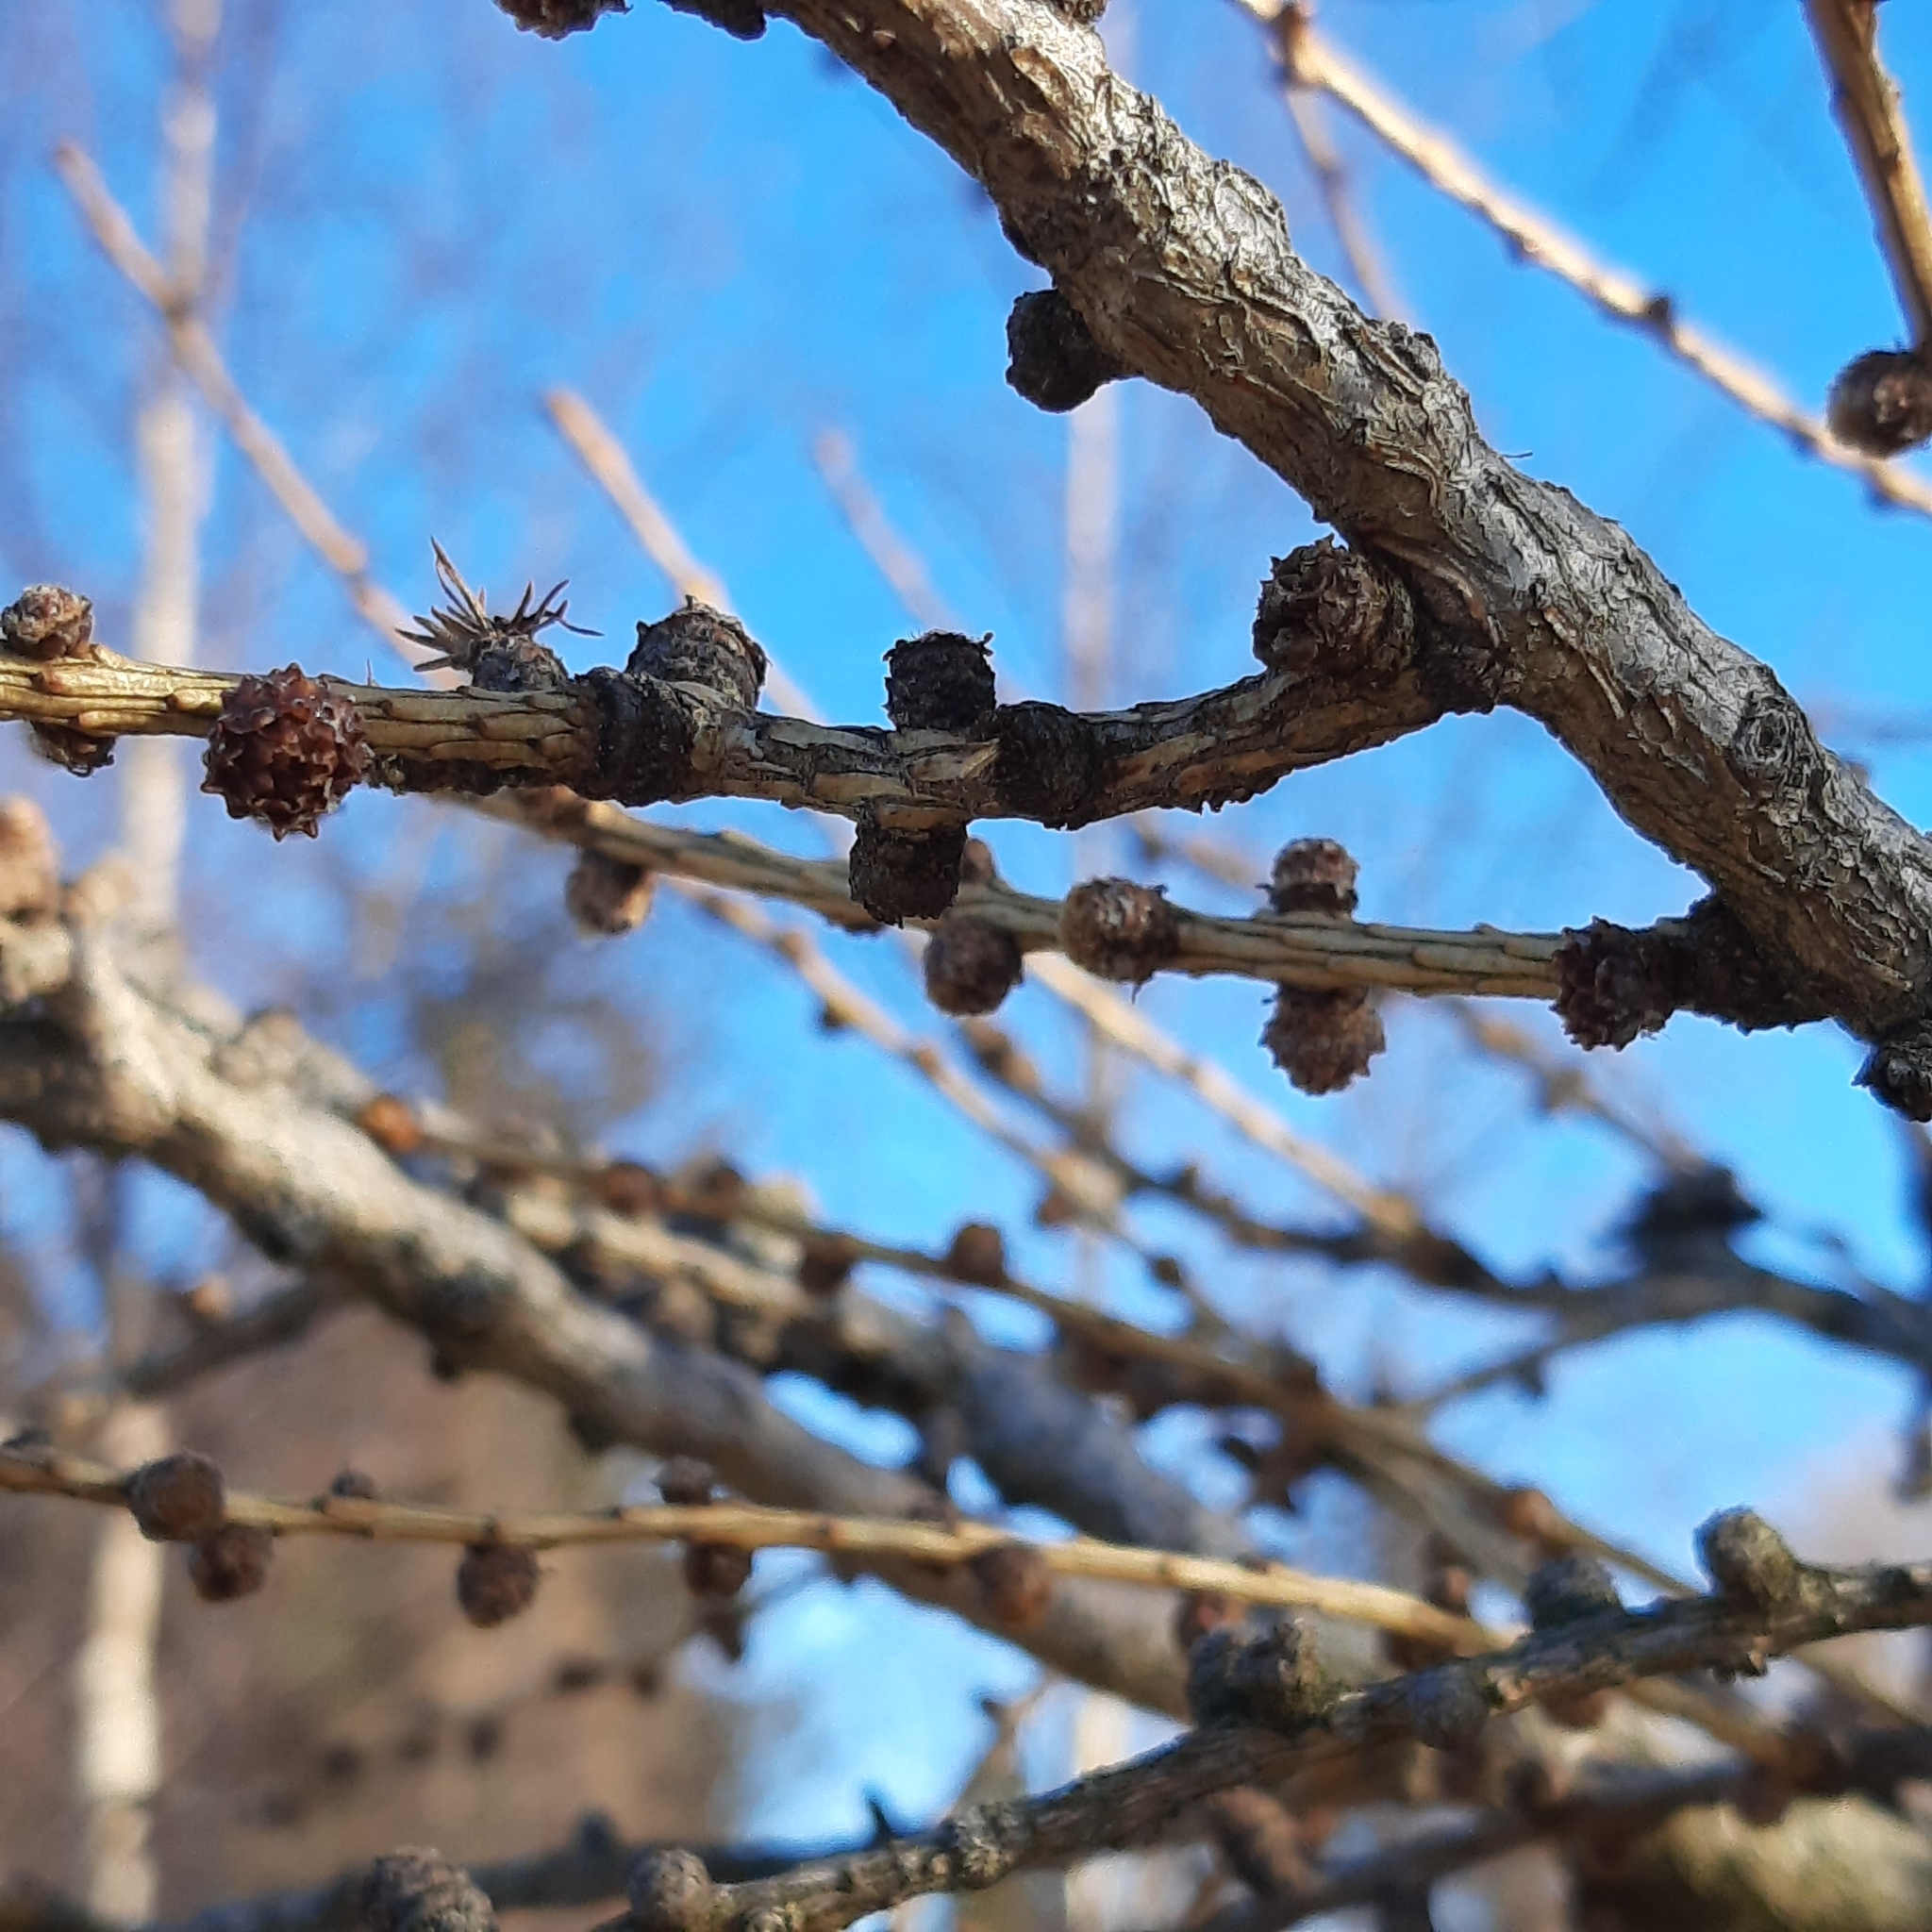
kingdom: Plantae
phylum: Tracheophyta
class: Pinopsida
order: Pinales
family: Pinaceae
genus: Larix
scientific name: Larix decidua
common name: European larch
